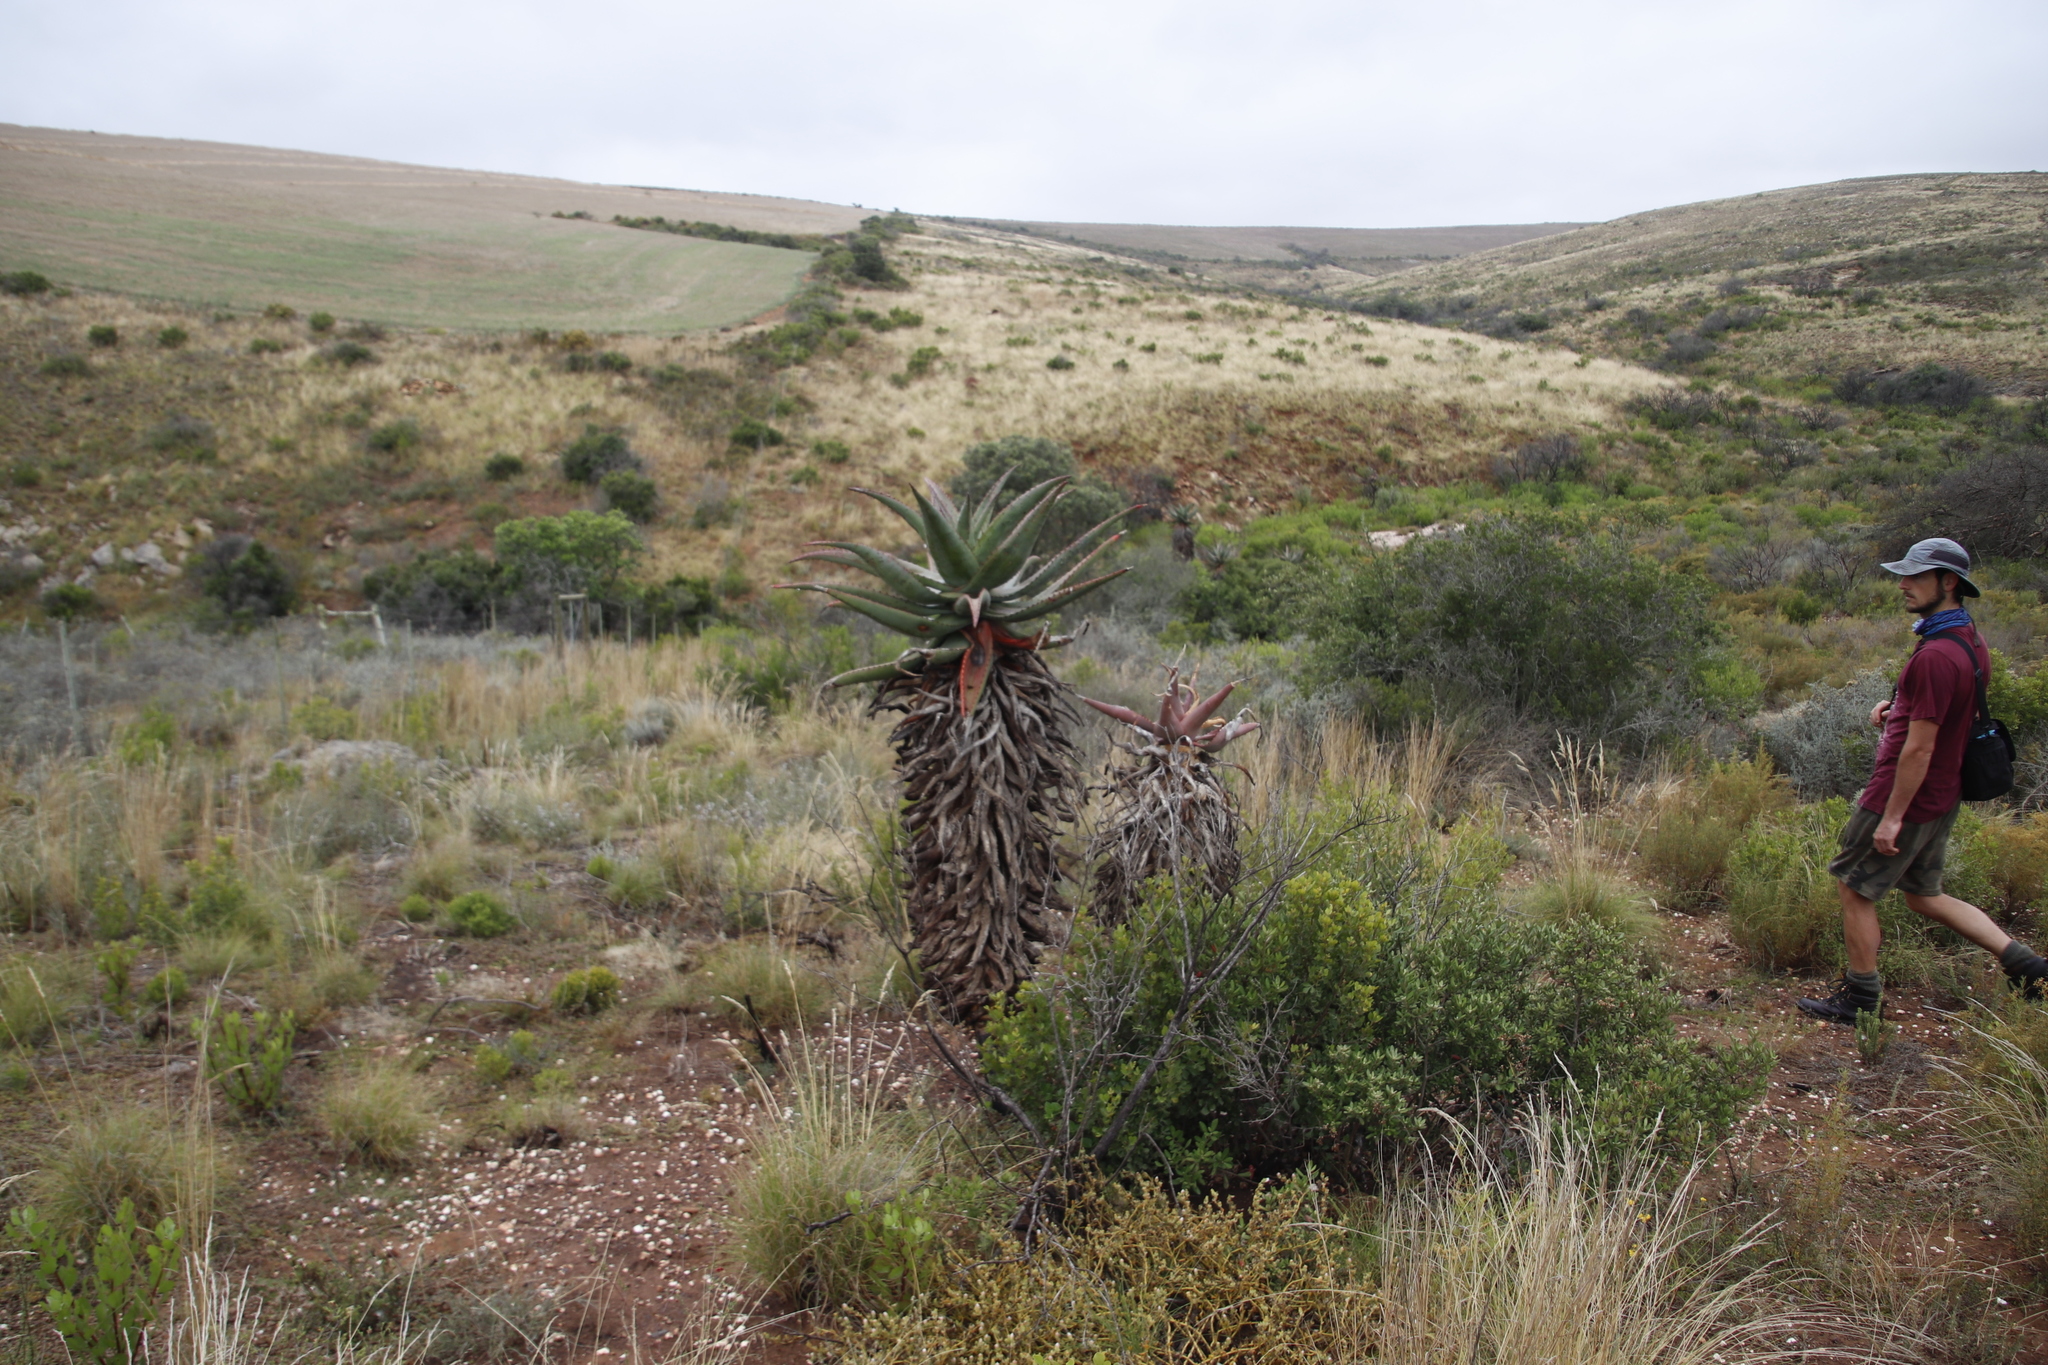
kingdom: Plantae
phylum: Tracheophyta
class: Liliopsida
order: Asparagales
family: Asphodelaceae
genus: Aloe
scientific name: Aloe ferox
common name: Bitter aloe
